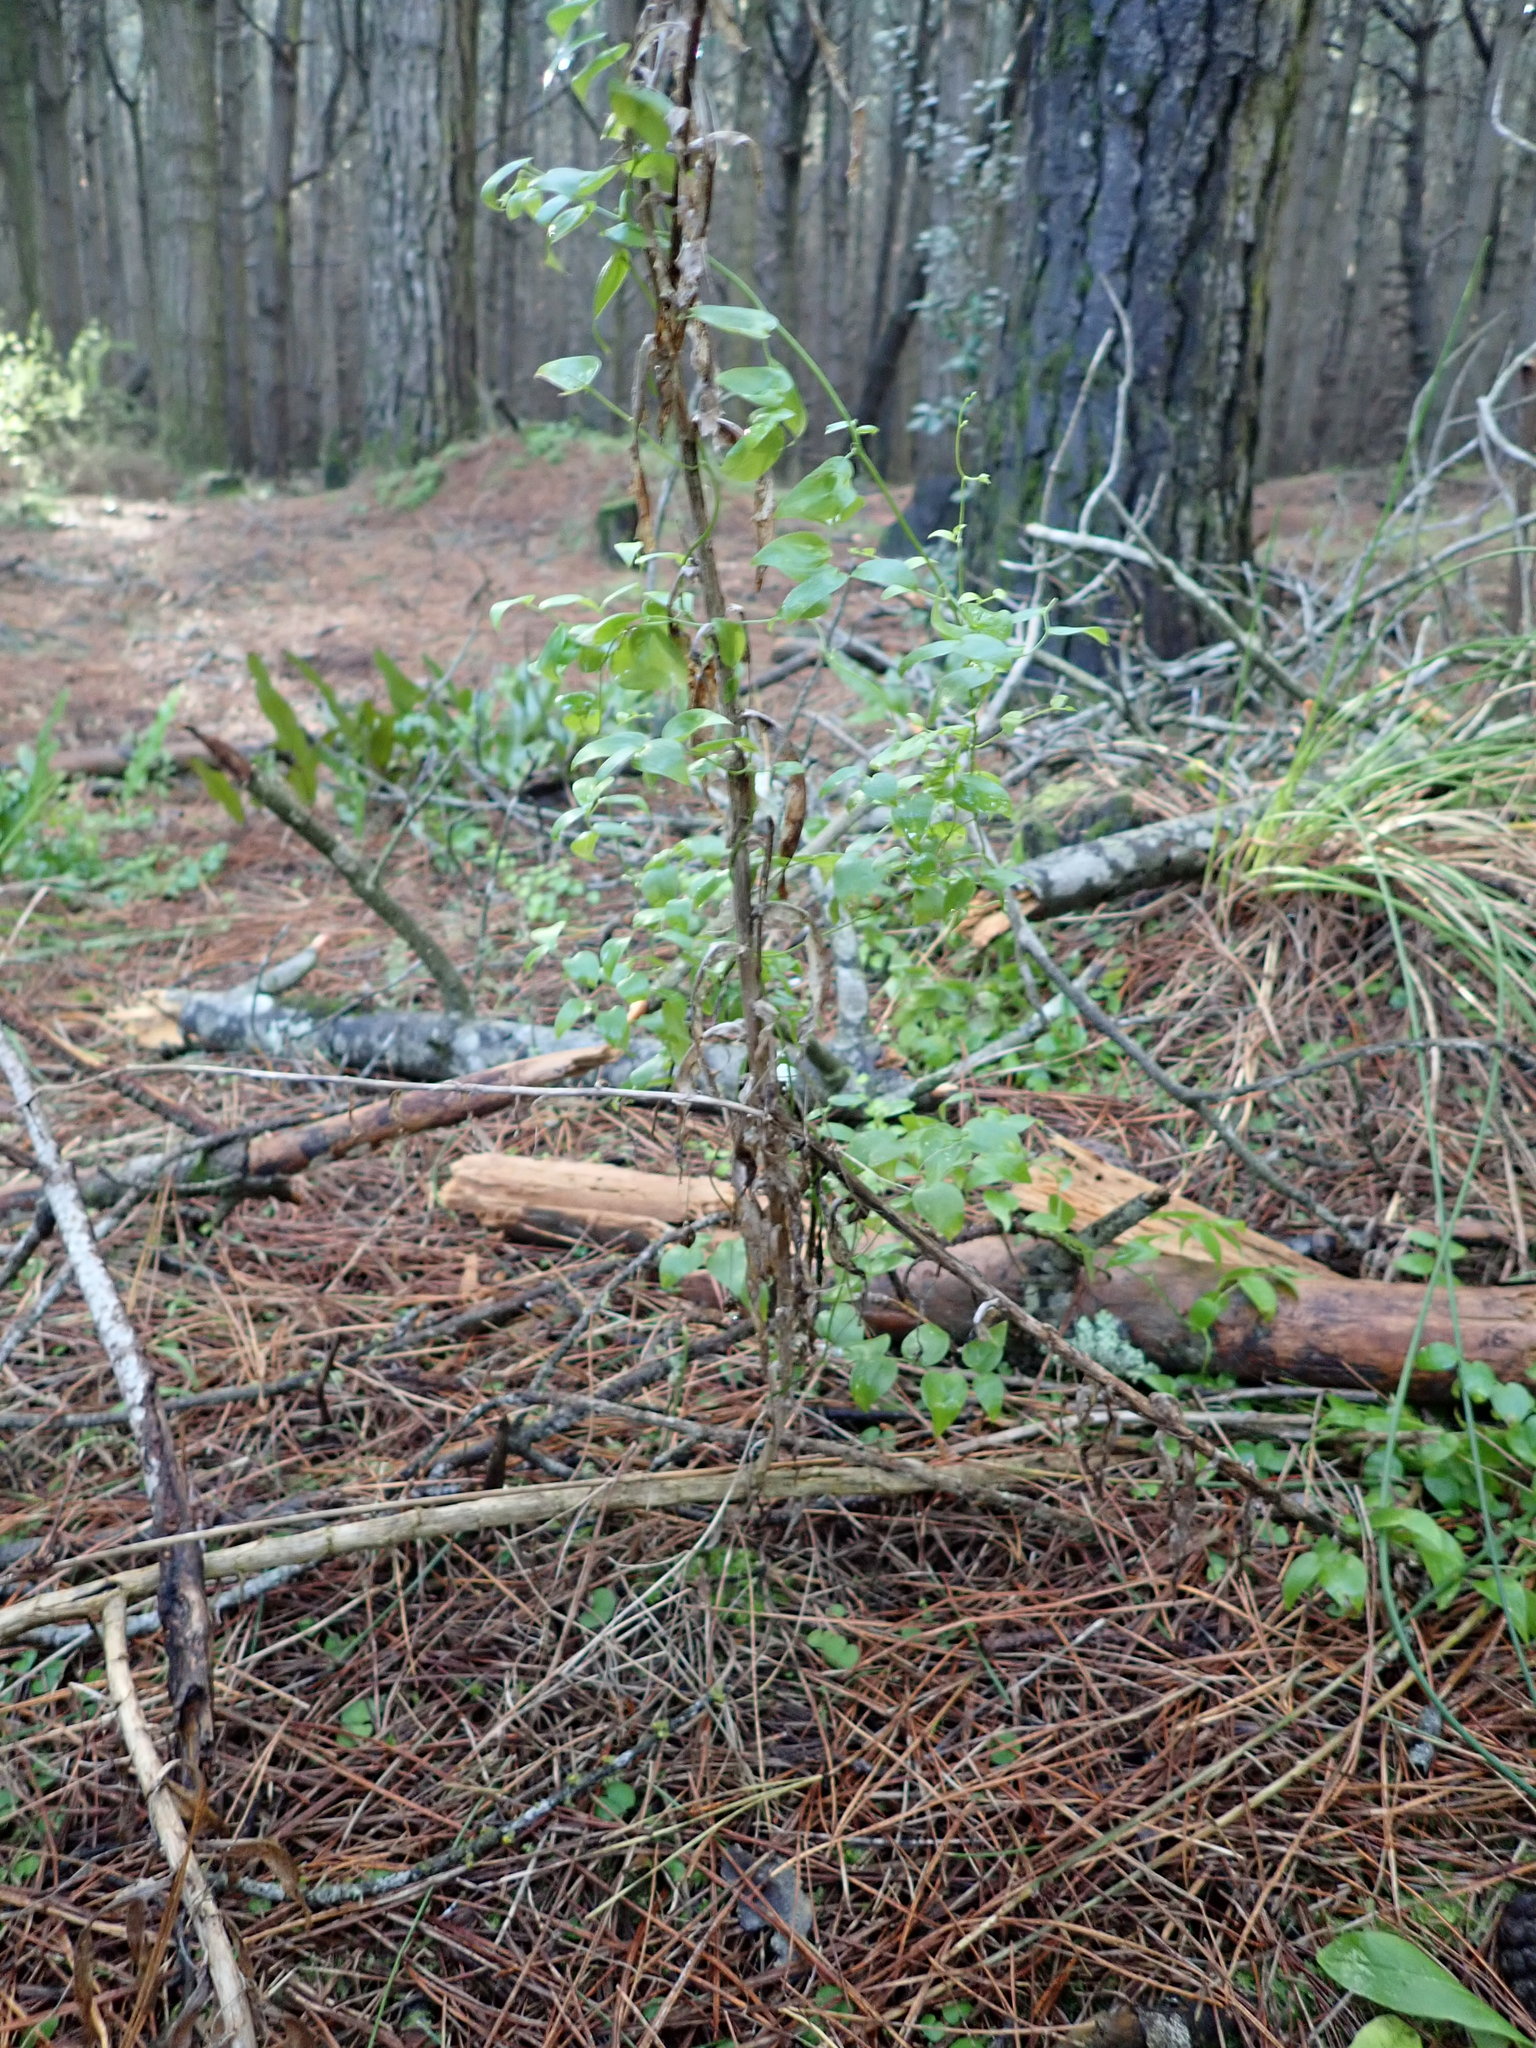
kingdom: Plantae
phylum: Tracheophyta
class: Liliopsida
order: Asparagales
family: Asparagaceae
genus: Asparagus
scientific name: Asparagus asparagoides
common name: African asparagus fern
